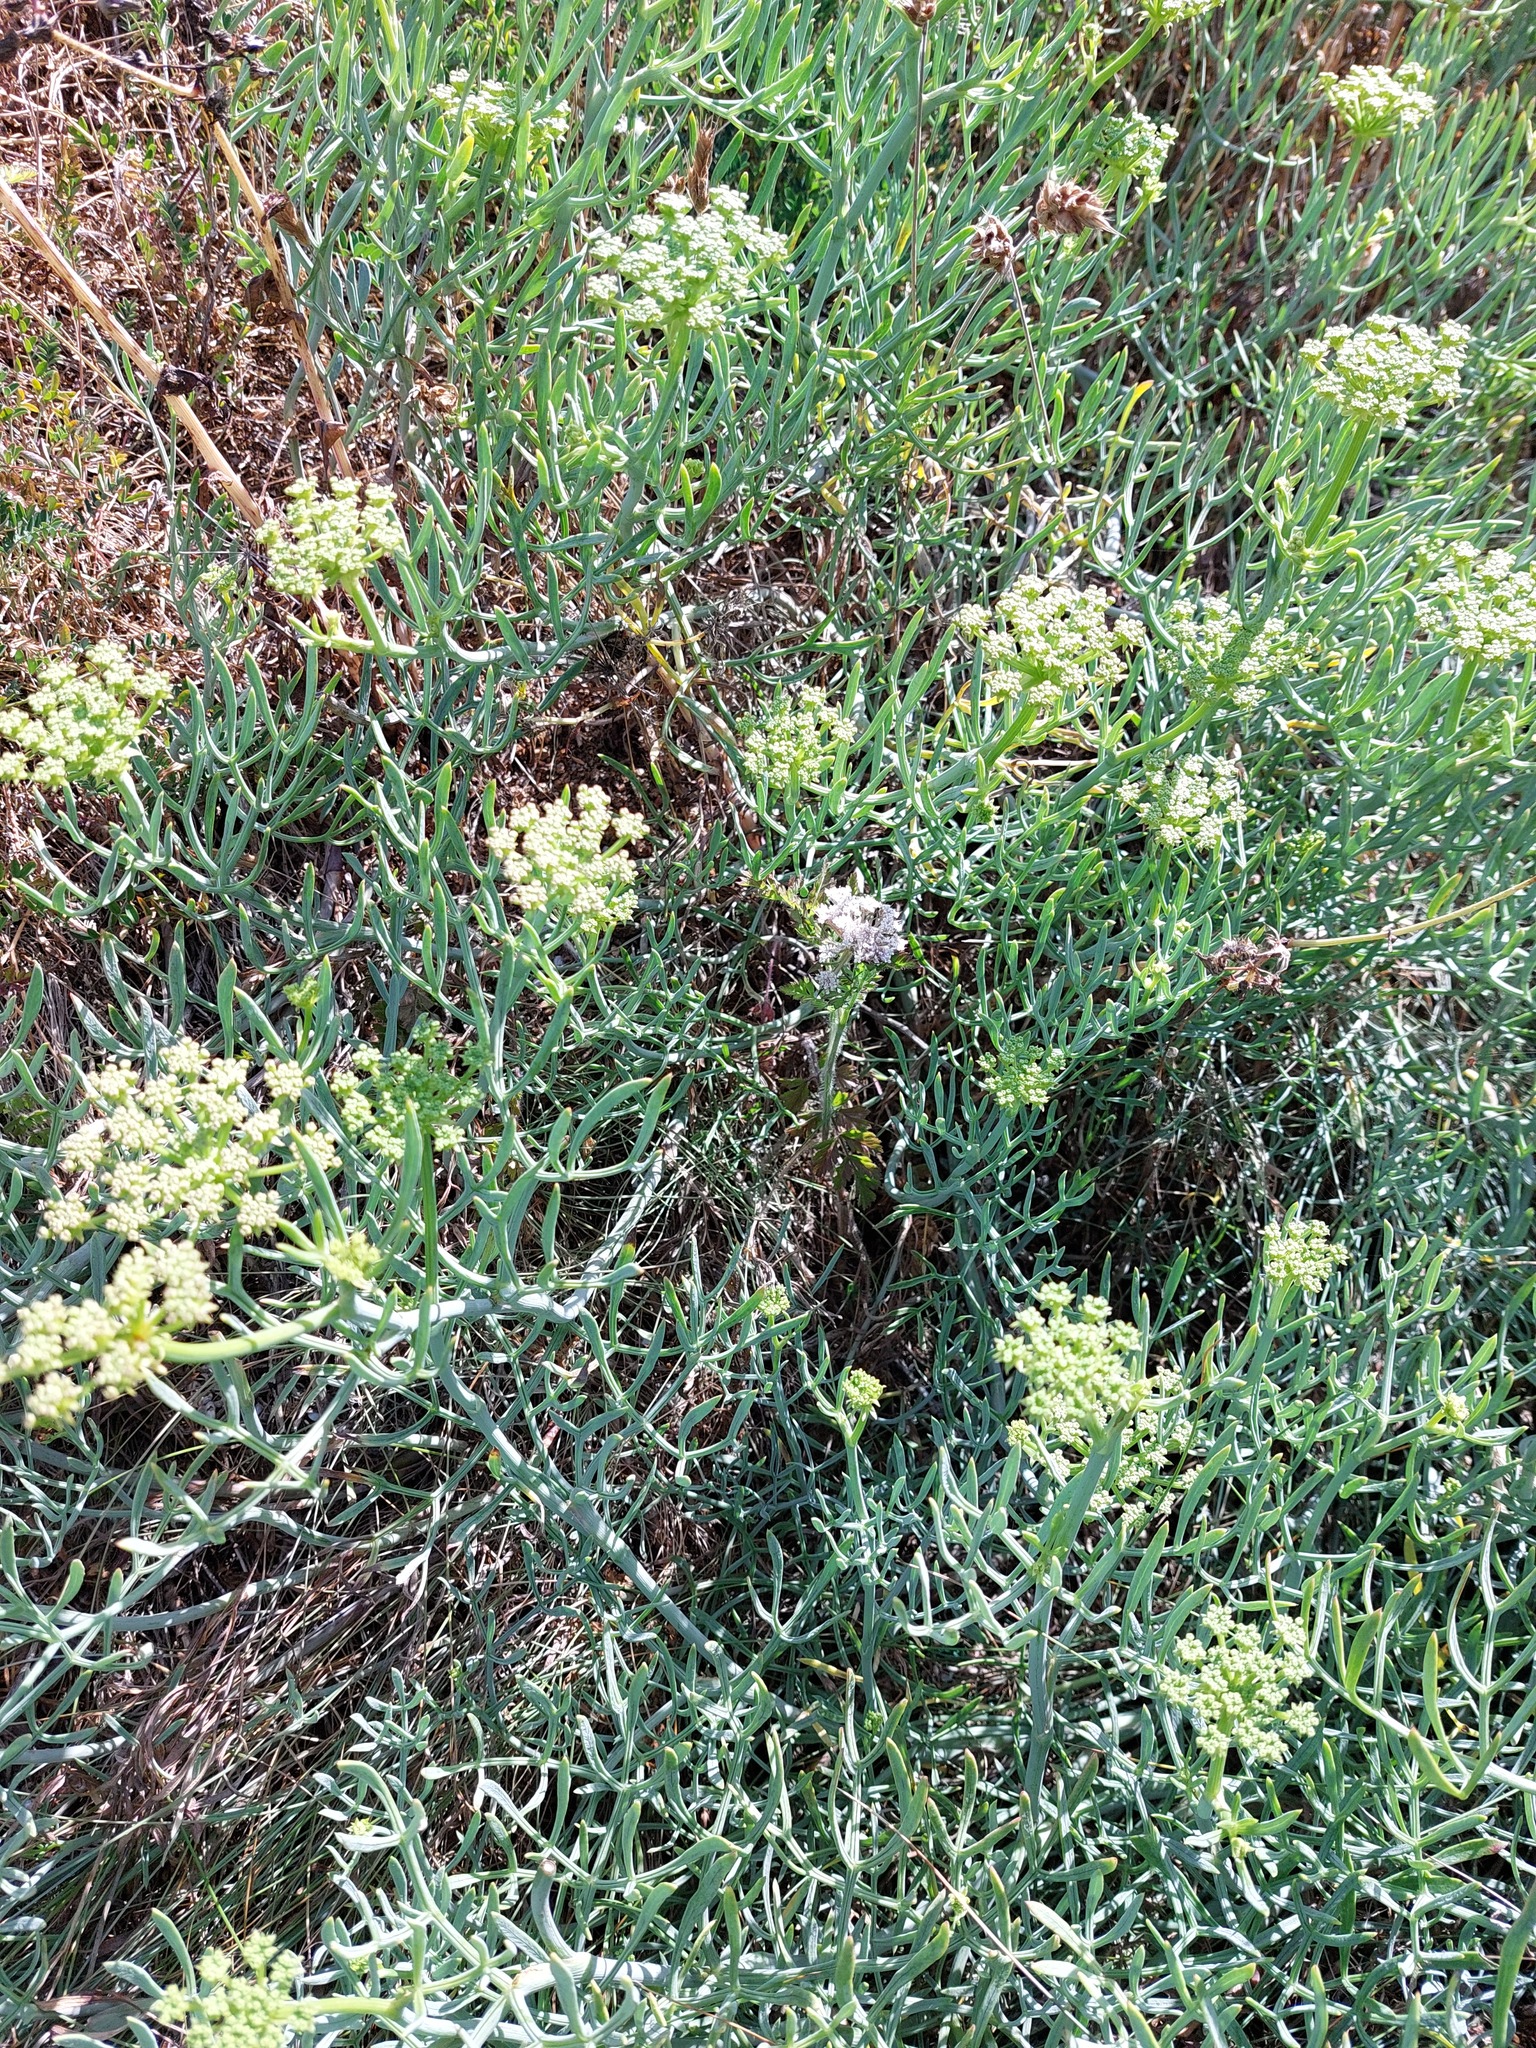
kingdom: Plantae
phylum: Tracheophyta
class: Magnoliopsida
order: Apiales
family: Apiaceae
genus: Crithmum
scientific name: Crithmum maritimum
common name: Rock samphire
